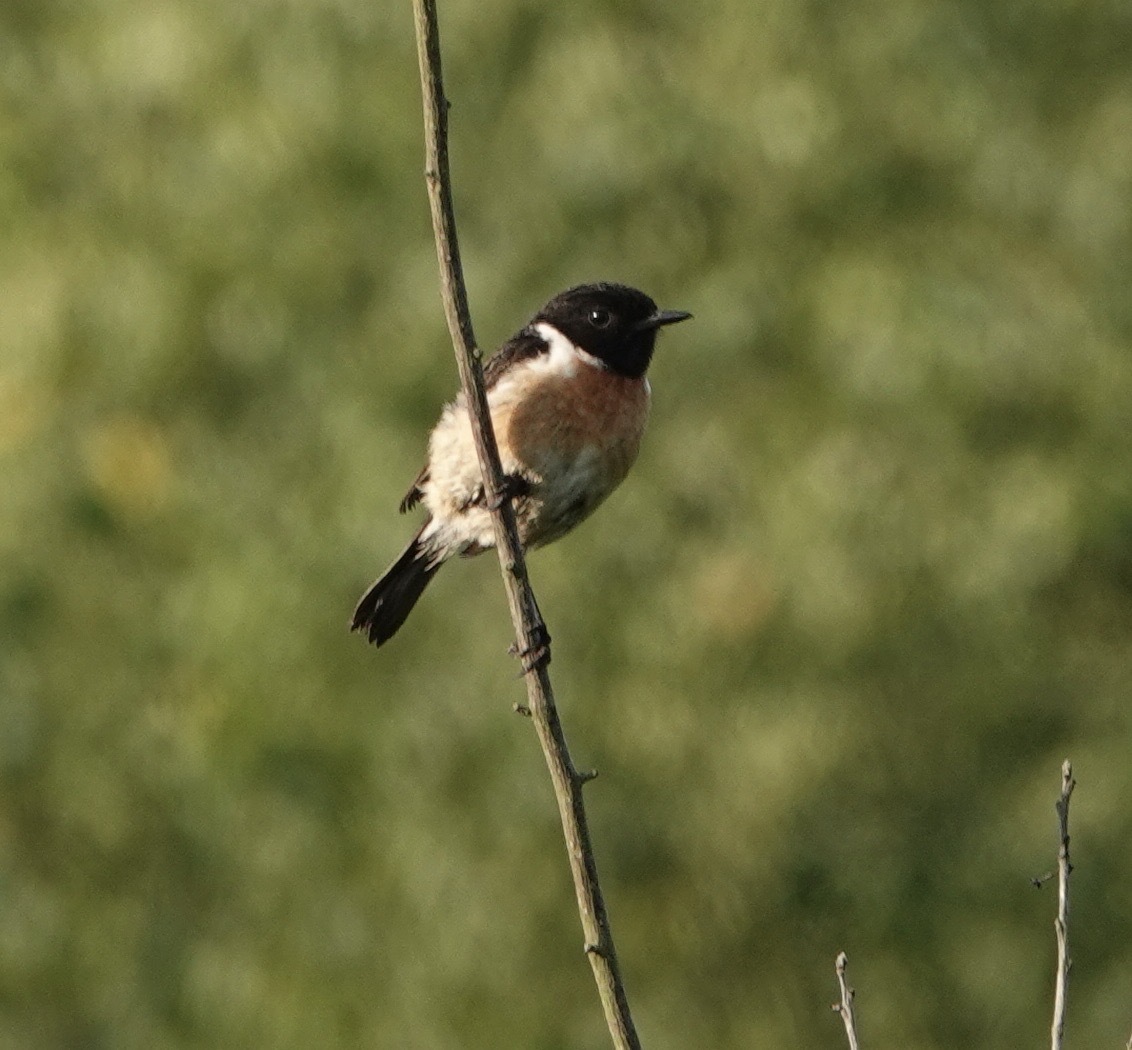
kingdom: Animalia
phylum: Chordata
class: Aves
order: Passeriformes
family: Muscicapidae
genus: Saxicola
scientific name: Saxicola rubicola
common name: European stonechat
